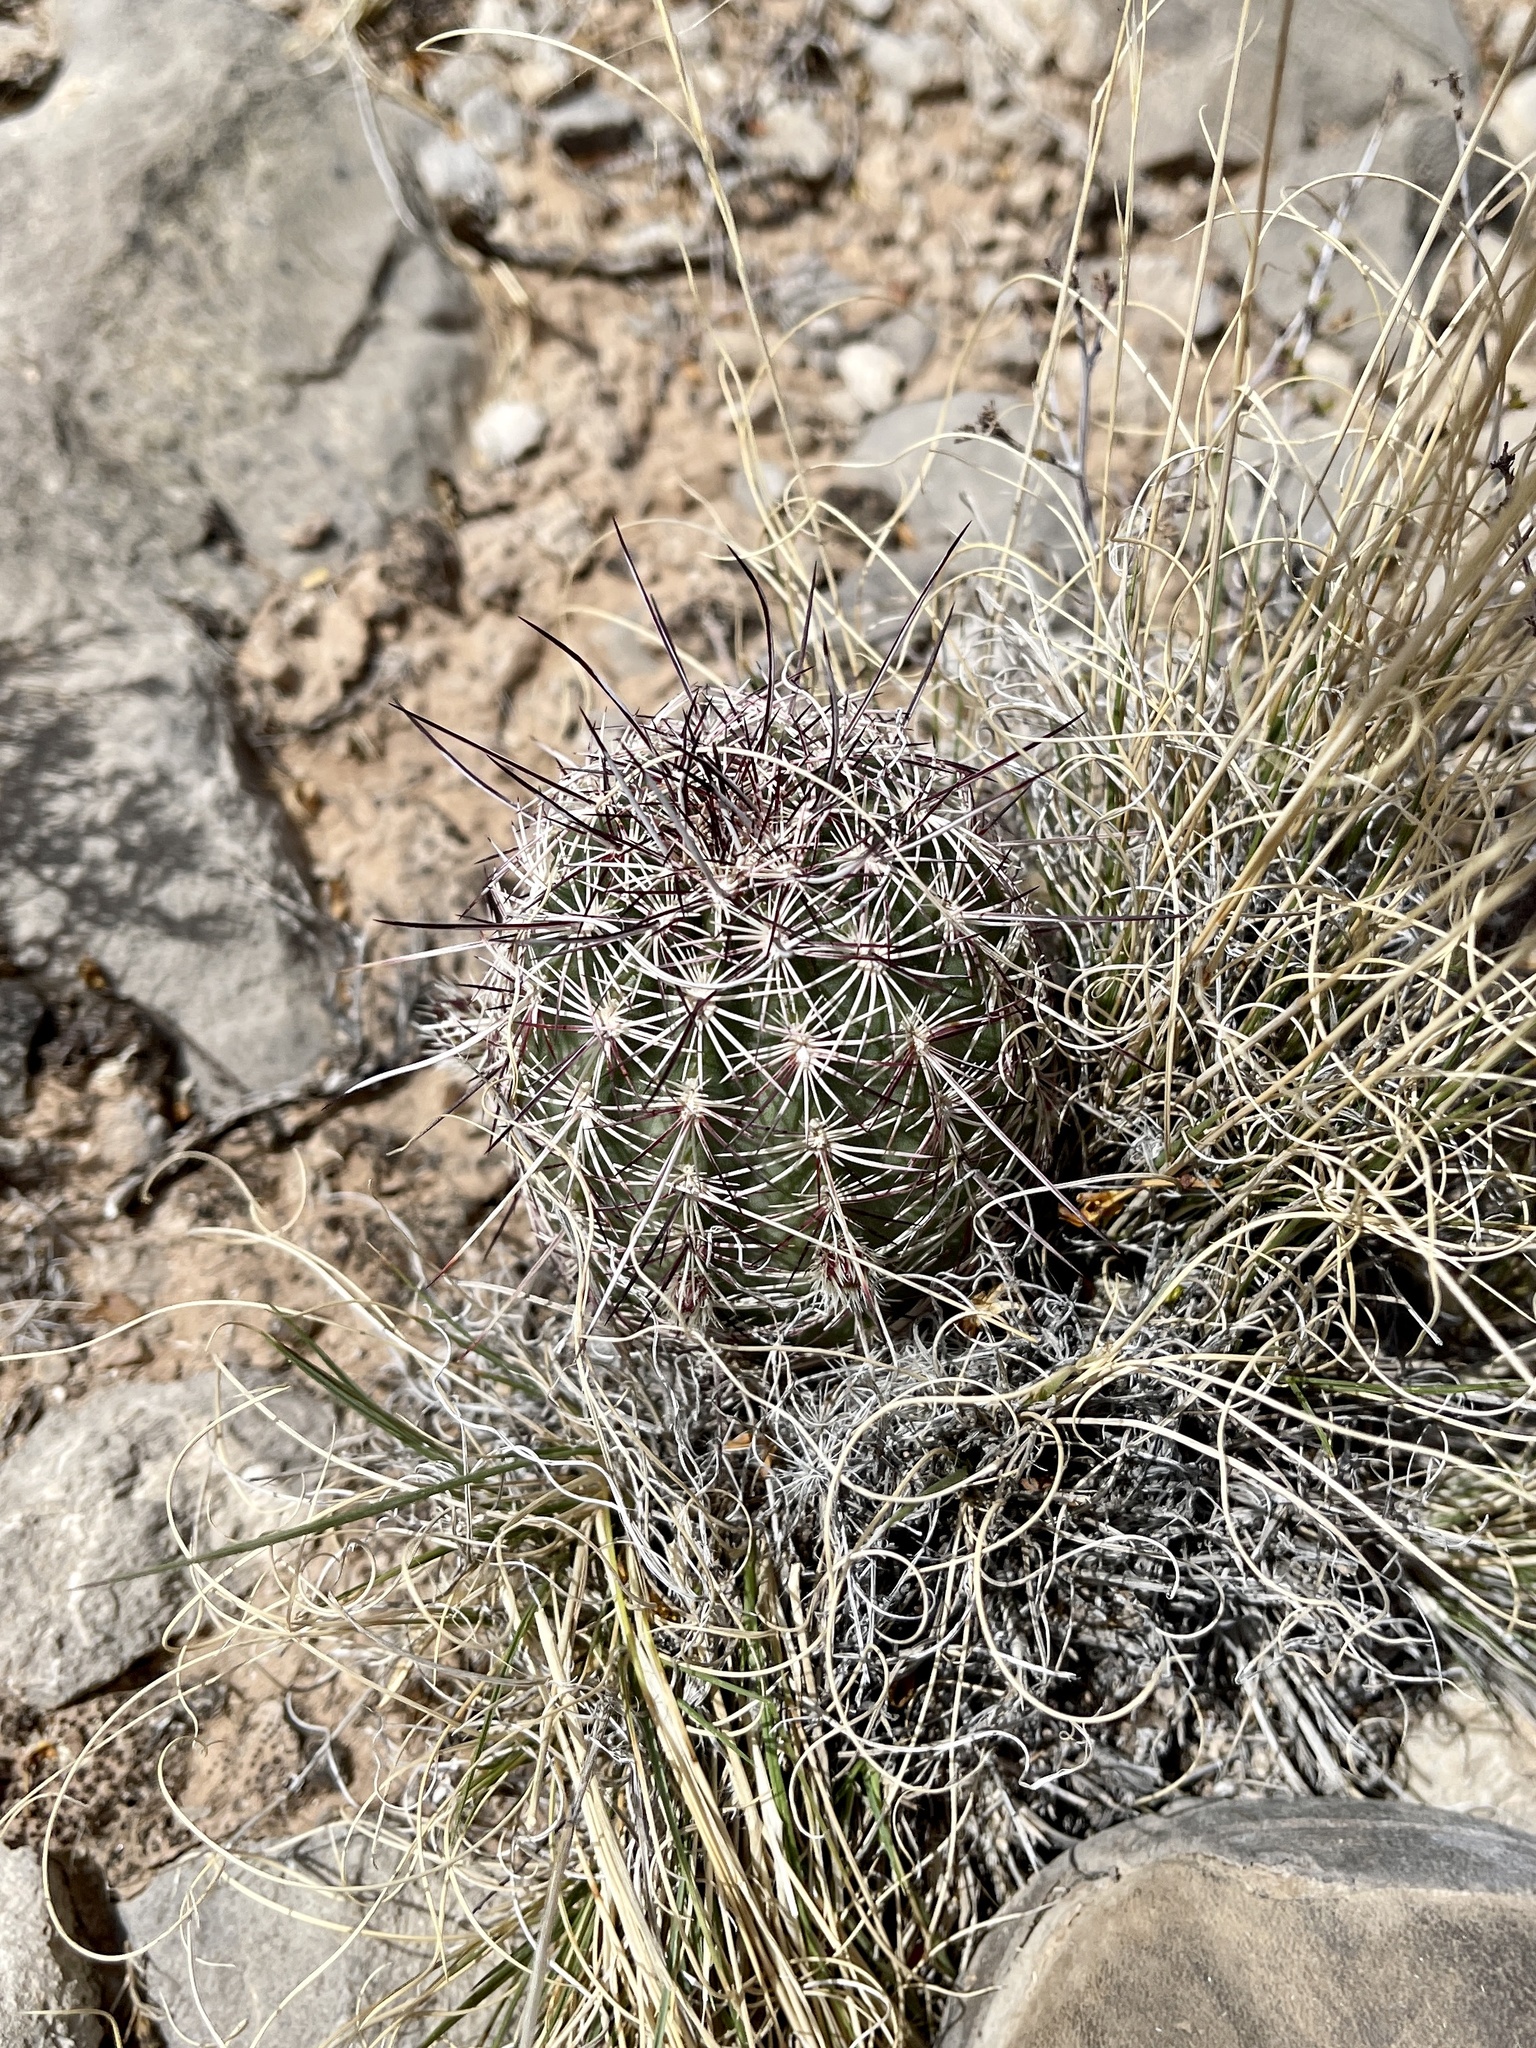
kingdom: Plantae
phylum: Tracheophyta
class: Magnoliopsida
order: Caryophyllales
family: Cactaceae
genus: Echinocereus
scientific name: Echinocereus viridiflorus
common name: Nylon hedgehog cactus
